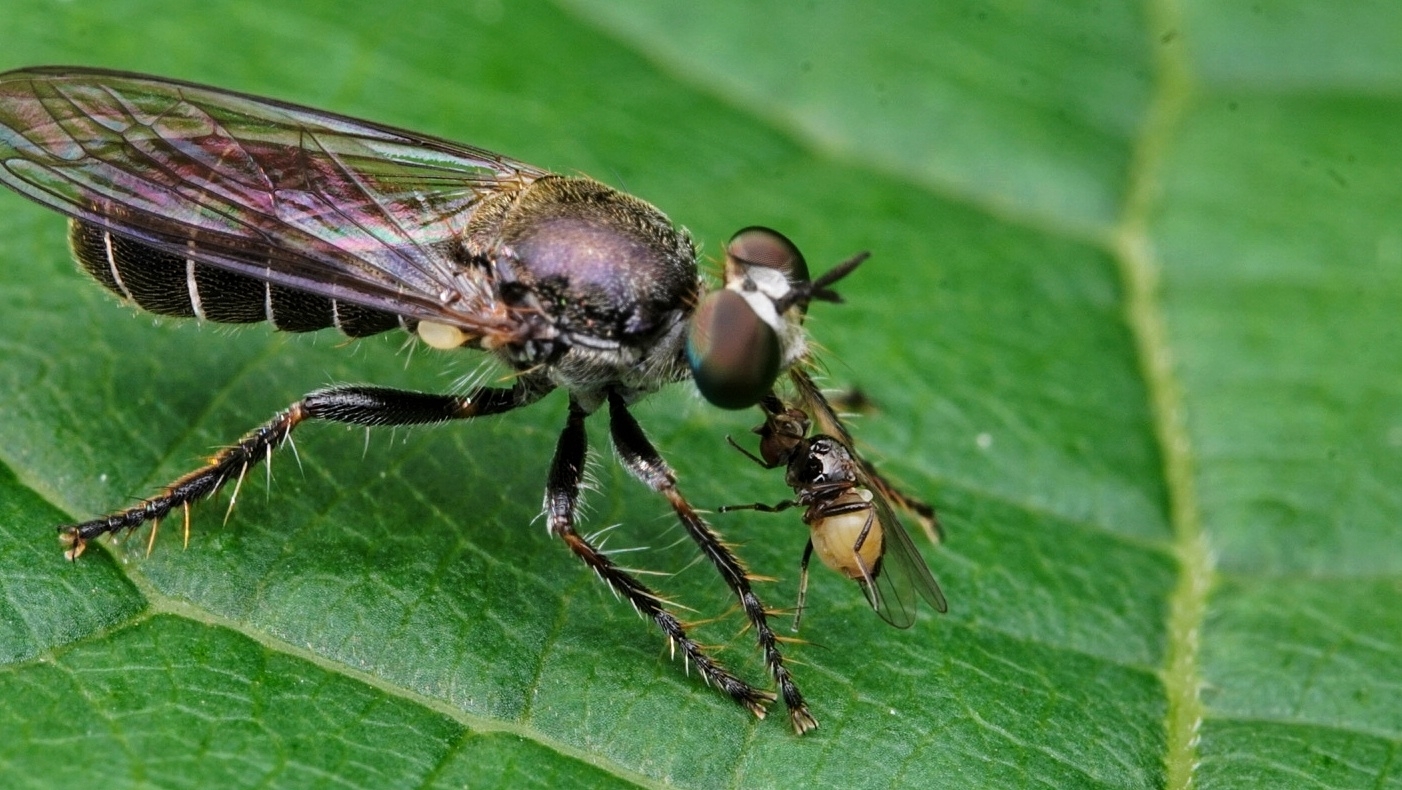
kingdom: Animalia
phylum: Arthropoda
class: Insecta
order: Diptera
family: Asilidae
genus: Atomosia
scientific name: Atomosia puella
